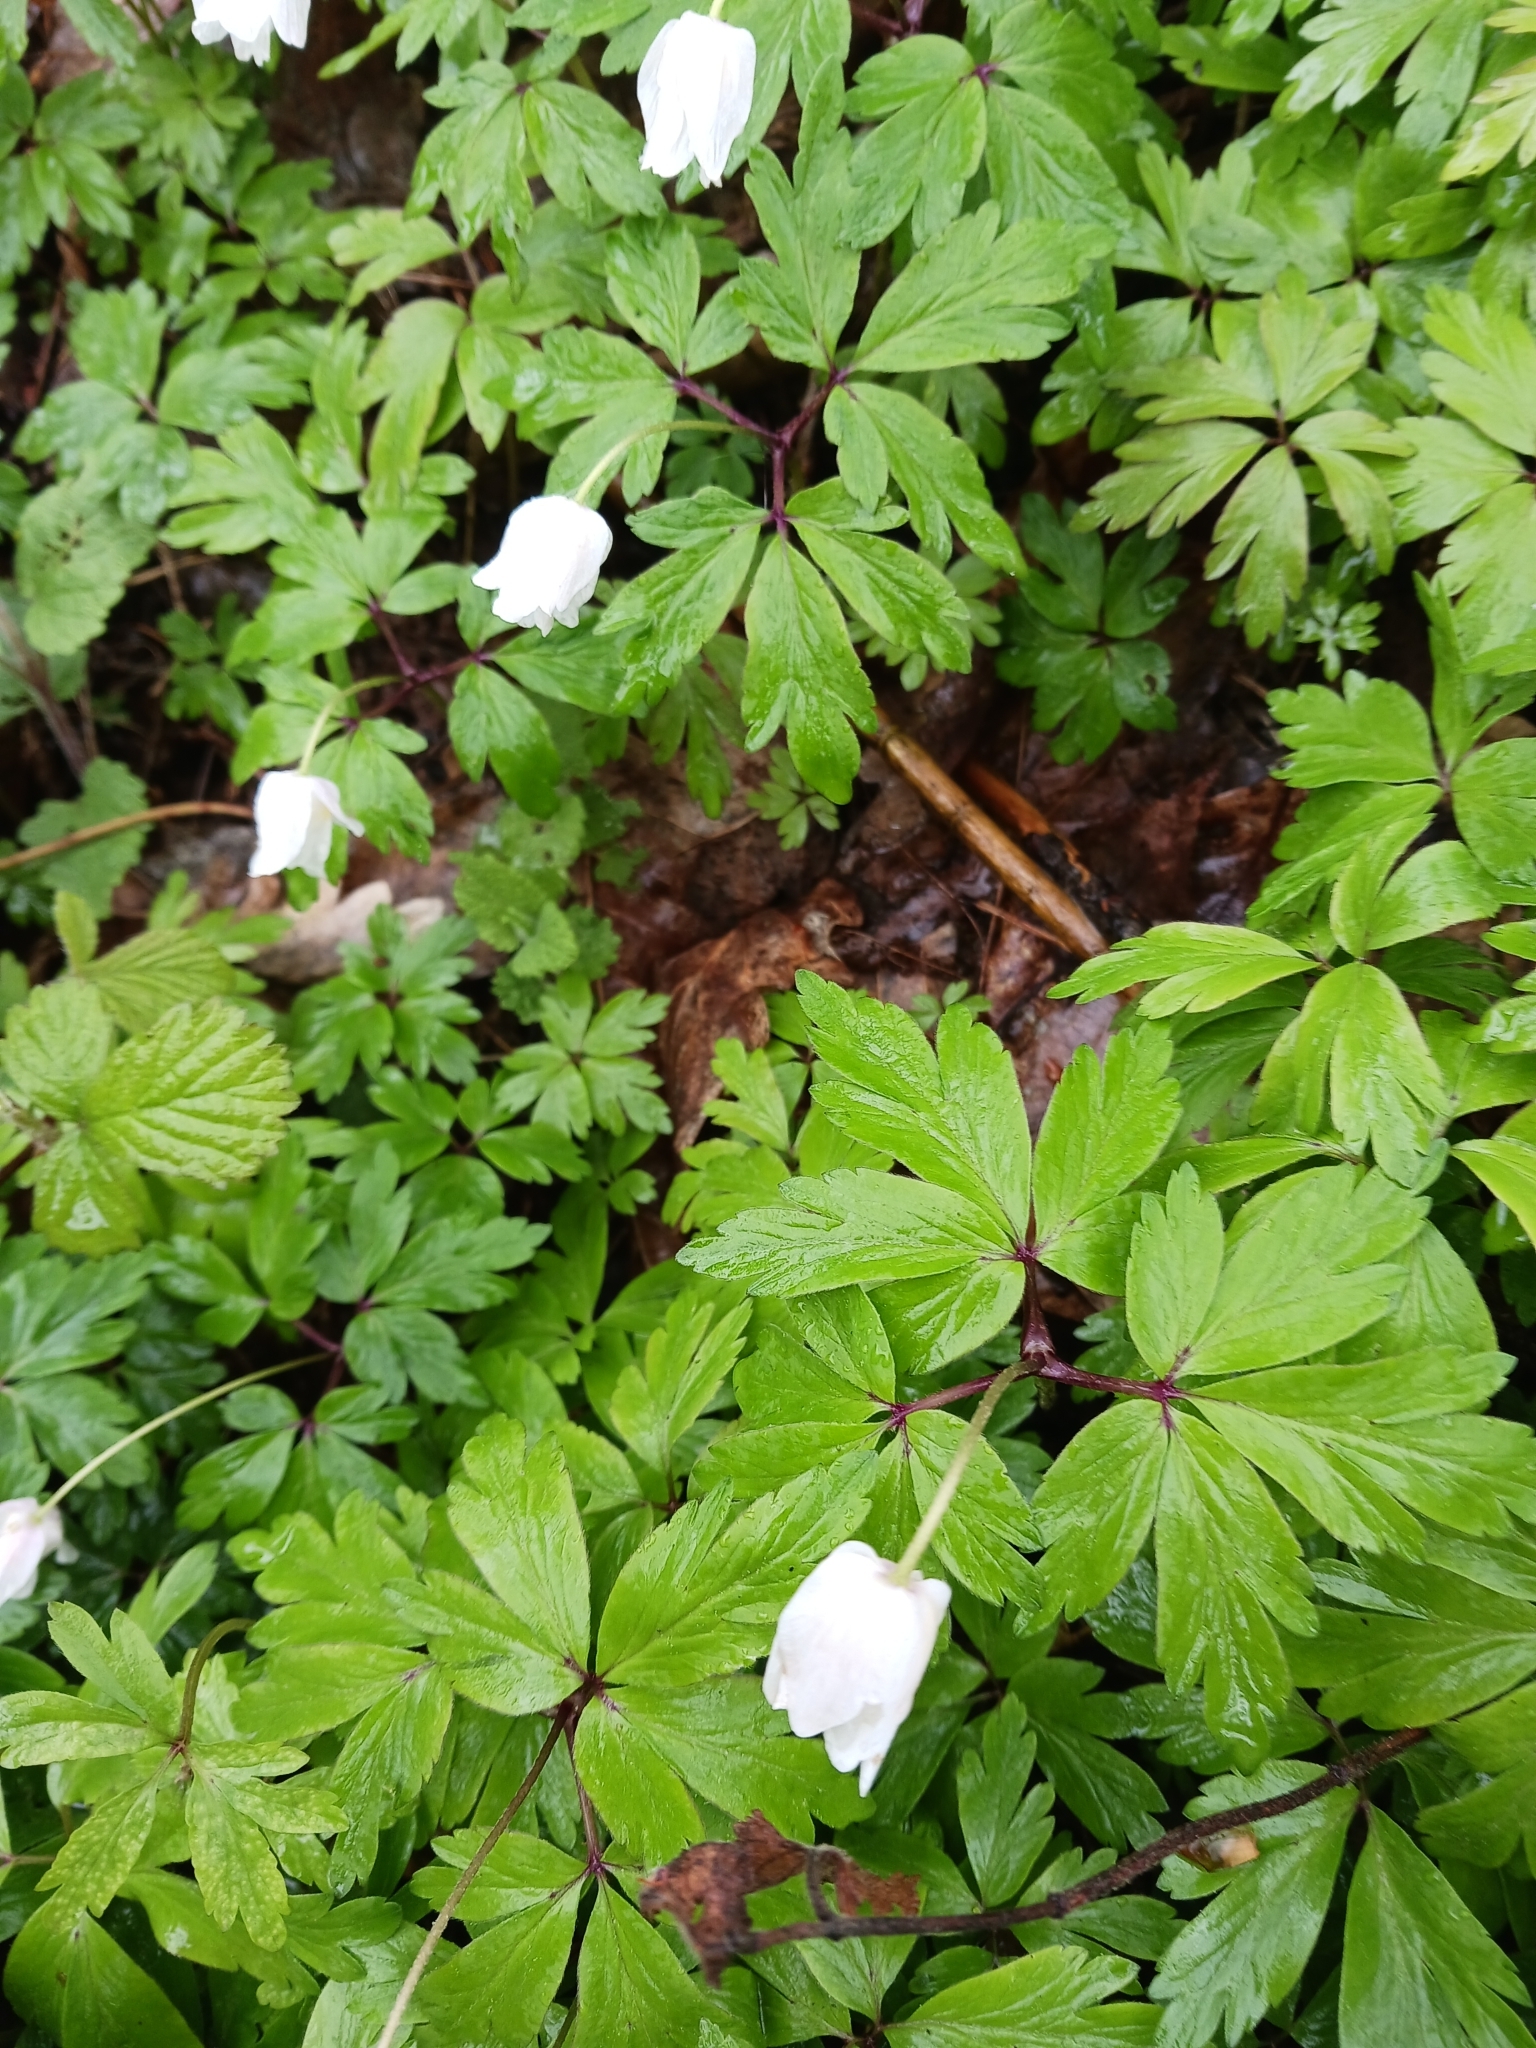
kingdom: Plantae
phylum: Tracheophyta
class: Magnoliopsida
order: Ranunculales
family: Ranunculaceae
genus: Anemone
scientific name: Anemone nemorosa
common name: Wood anemone
